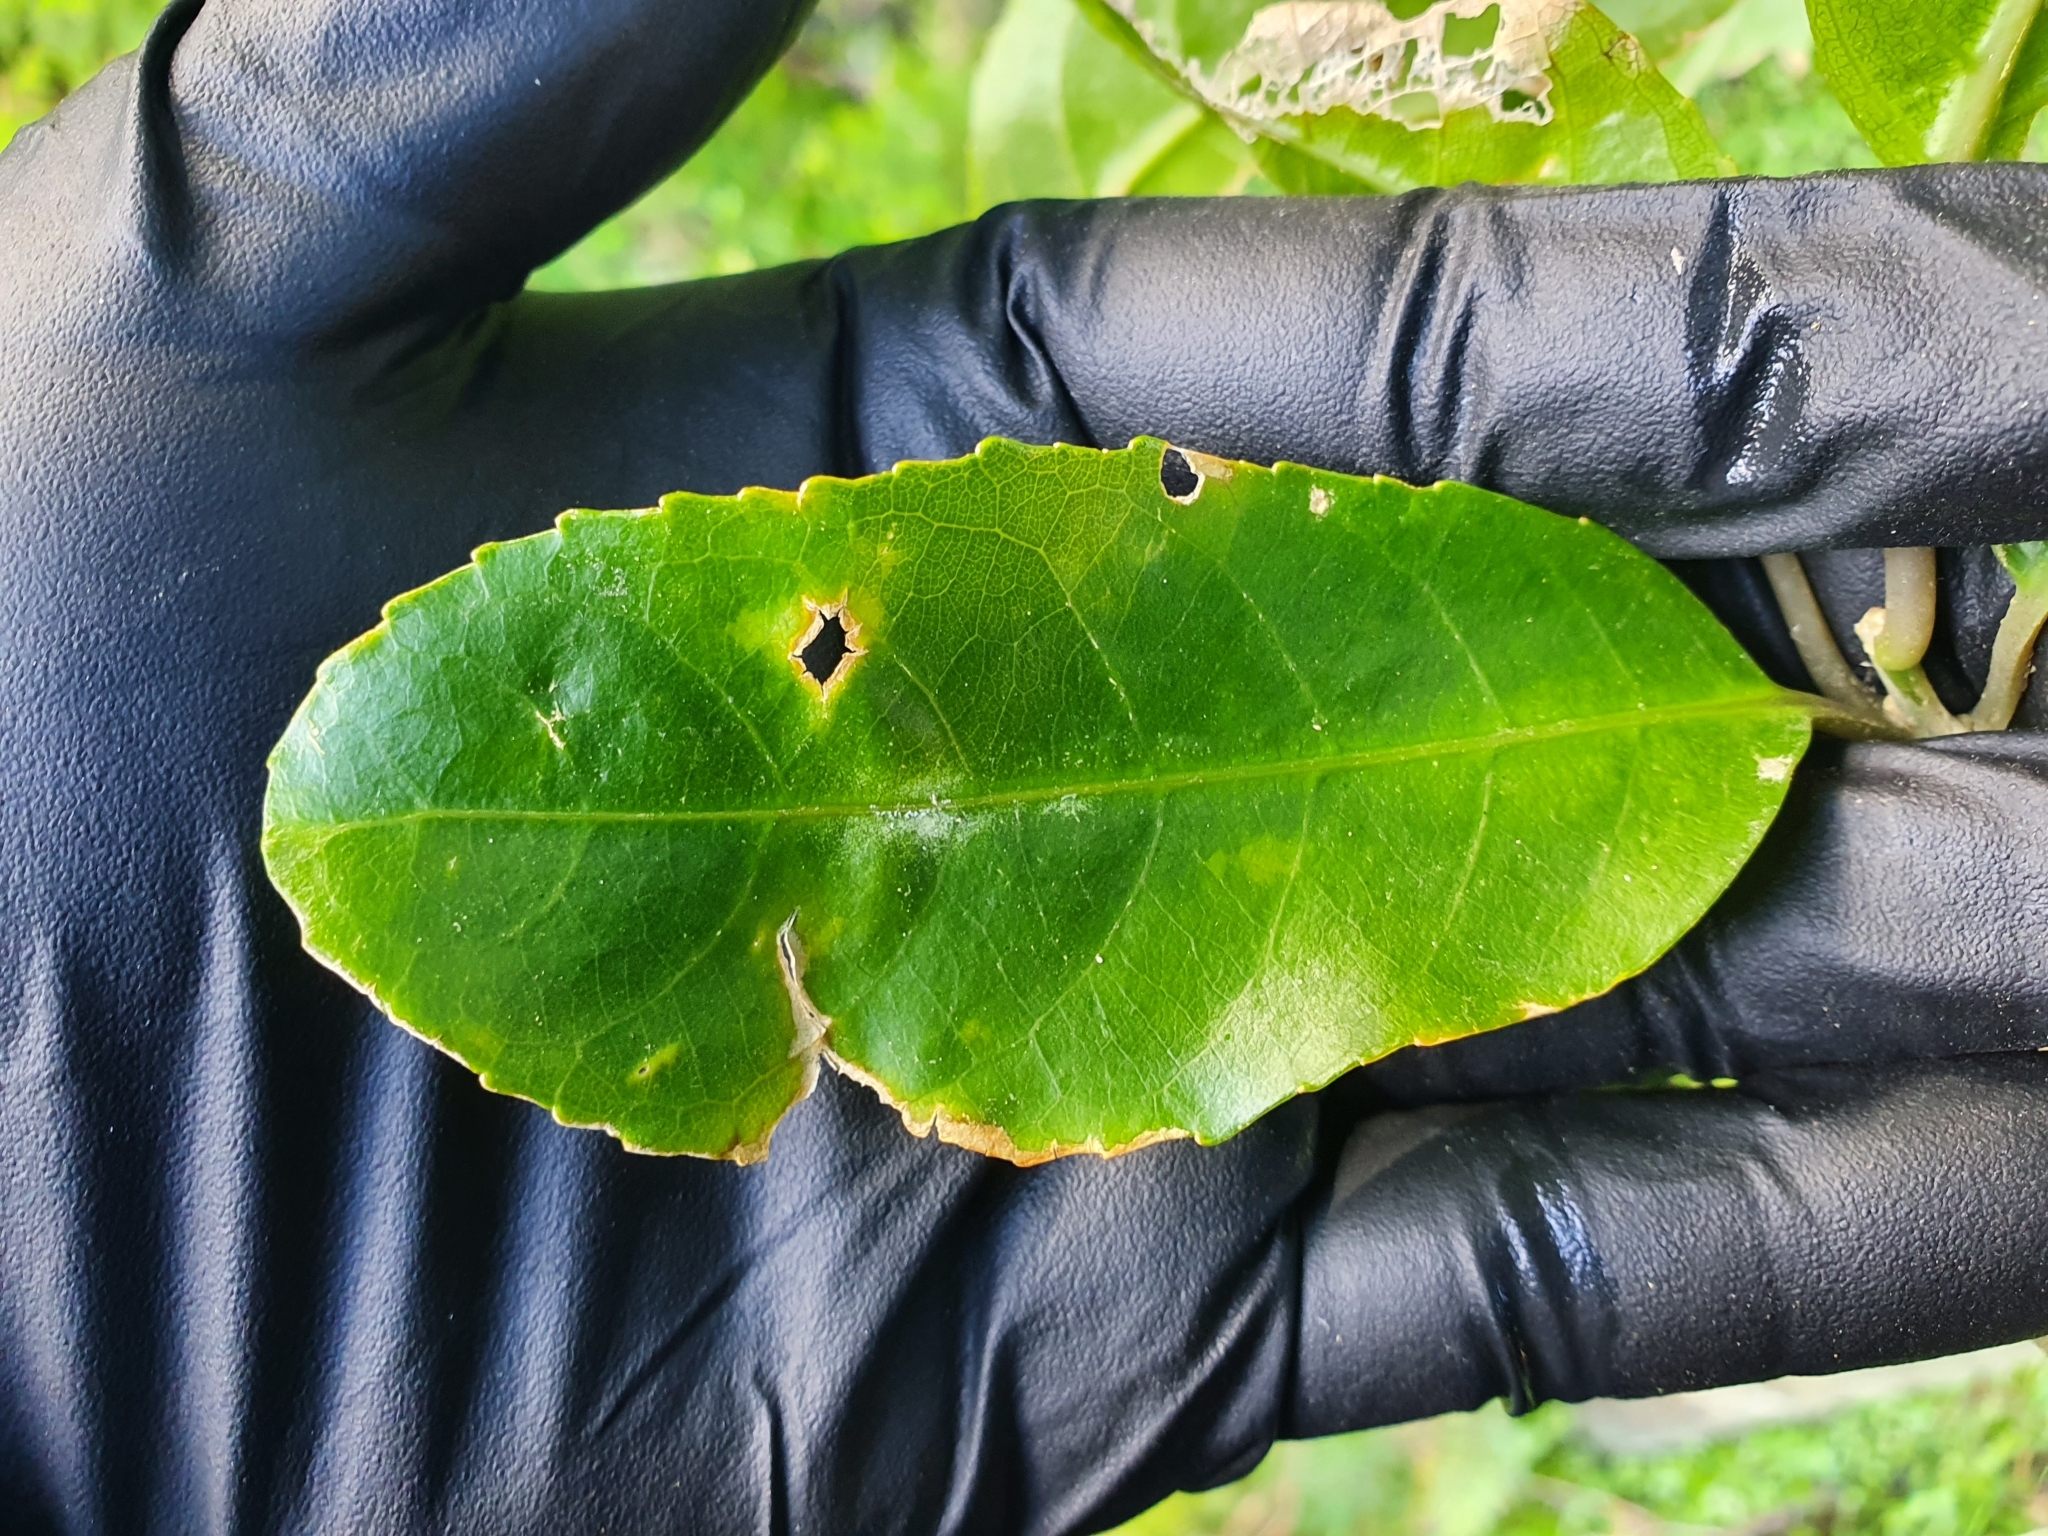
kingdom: Plantae
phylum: Tracheophyta
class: Magnoliopsida
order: Malpighiales
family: Violaceae
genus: Melicytus
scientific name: Melicytus ramiflorus
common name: Mahoe
